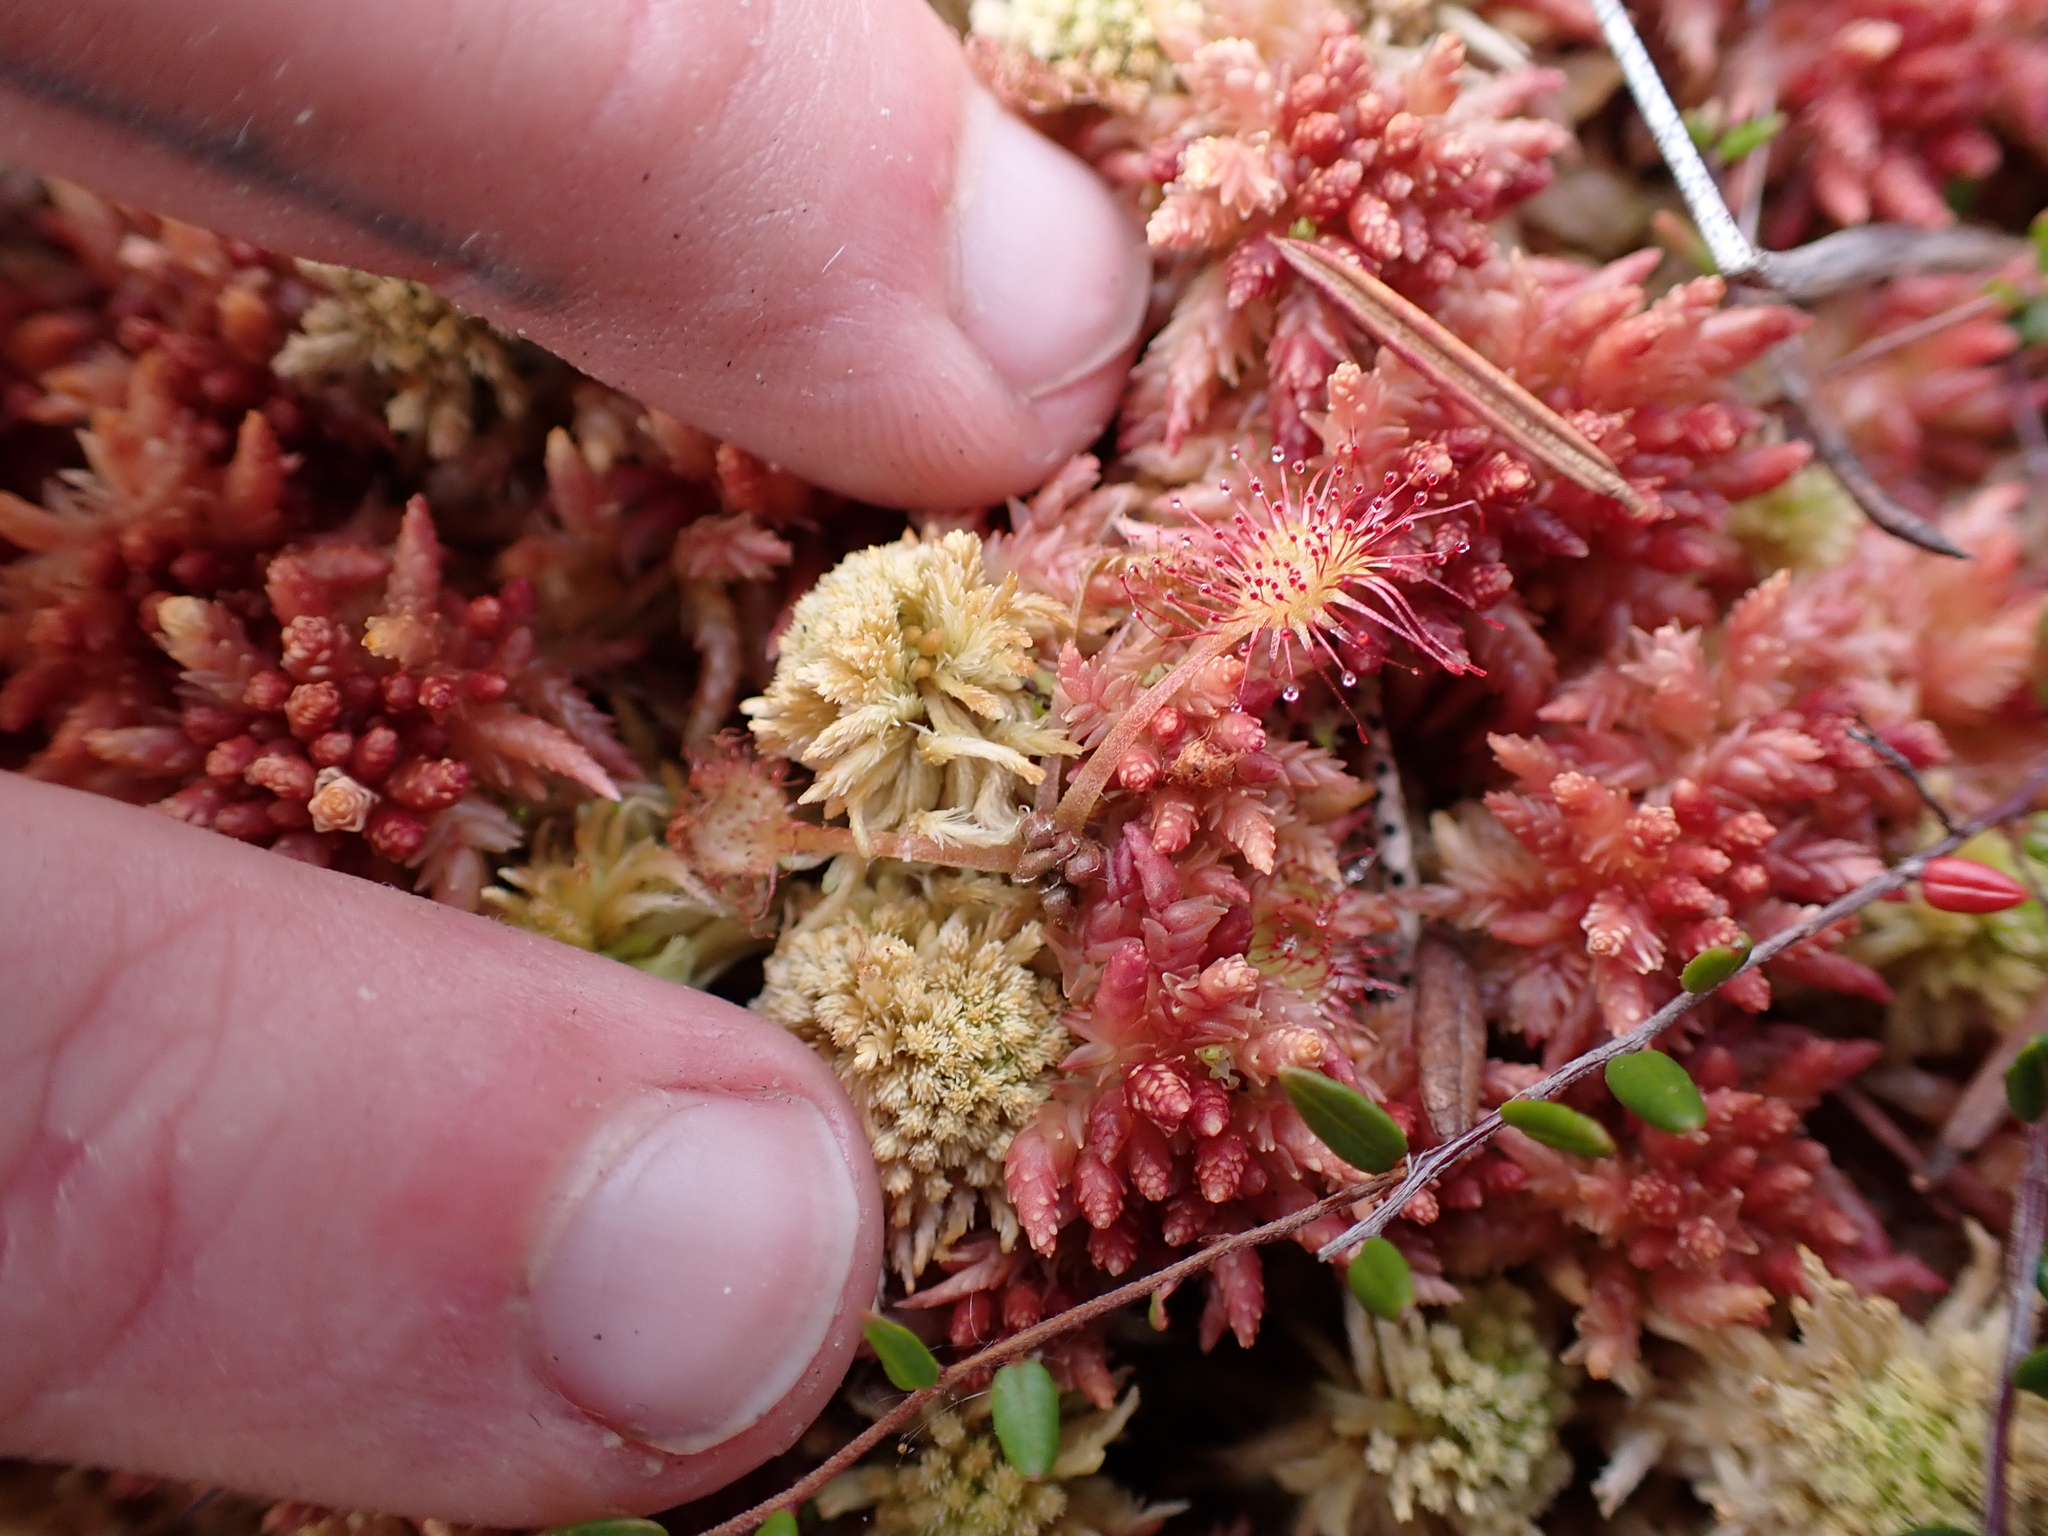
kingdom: Plantae
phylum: Tracheophyta
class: Magnoliopsida
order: Caryophyllales
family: Droseraceae
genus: Drosera
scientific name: Drosera rotundifolia
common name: Round-leaved sundew
